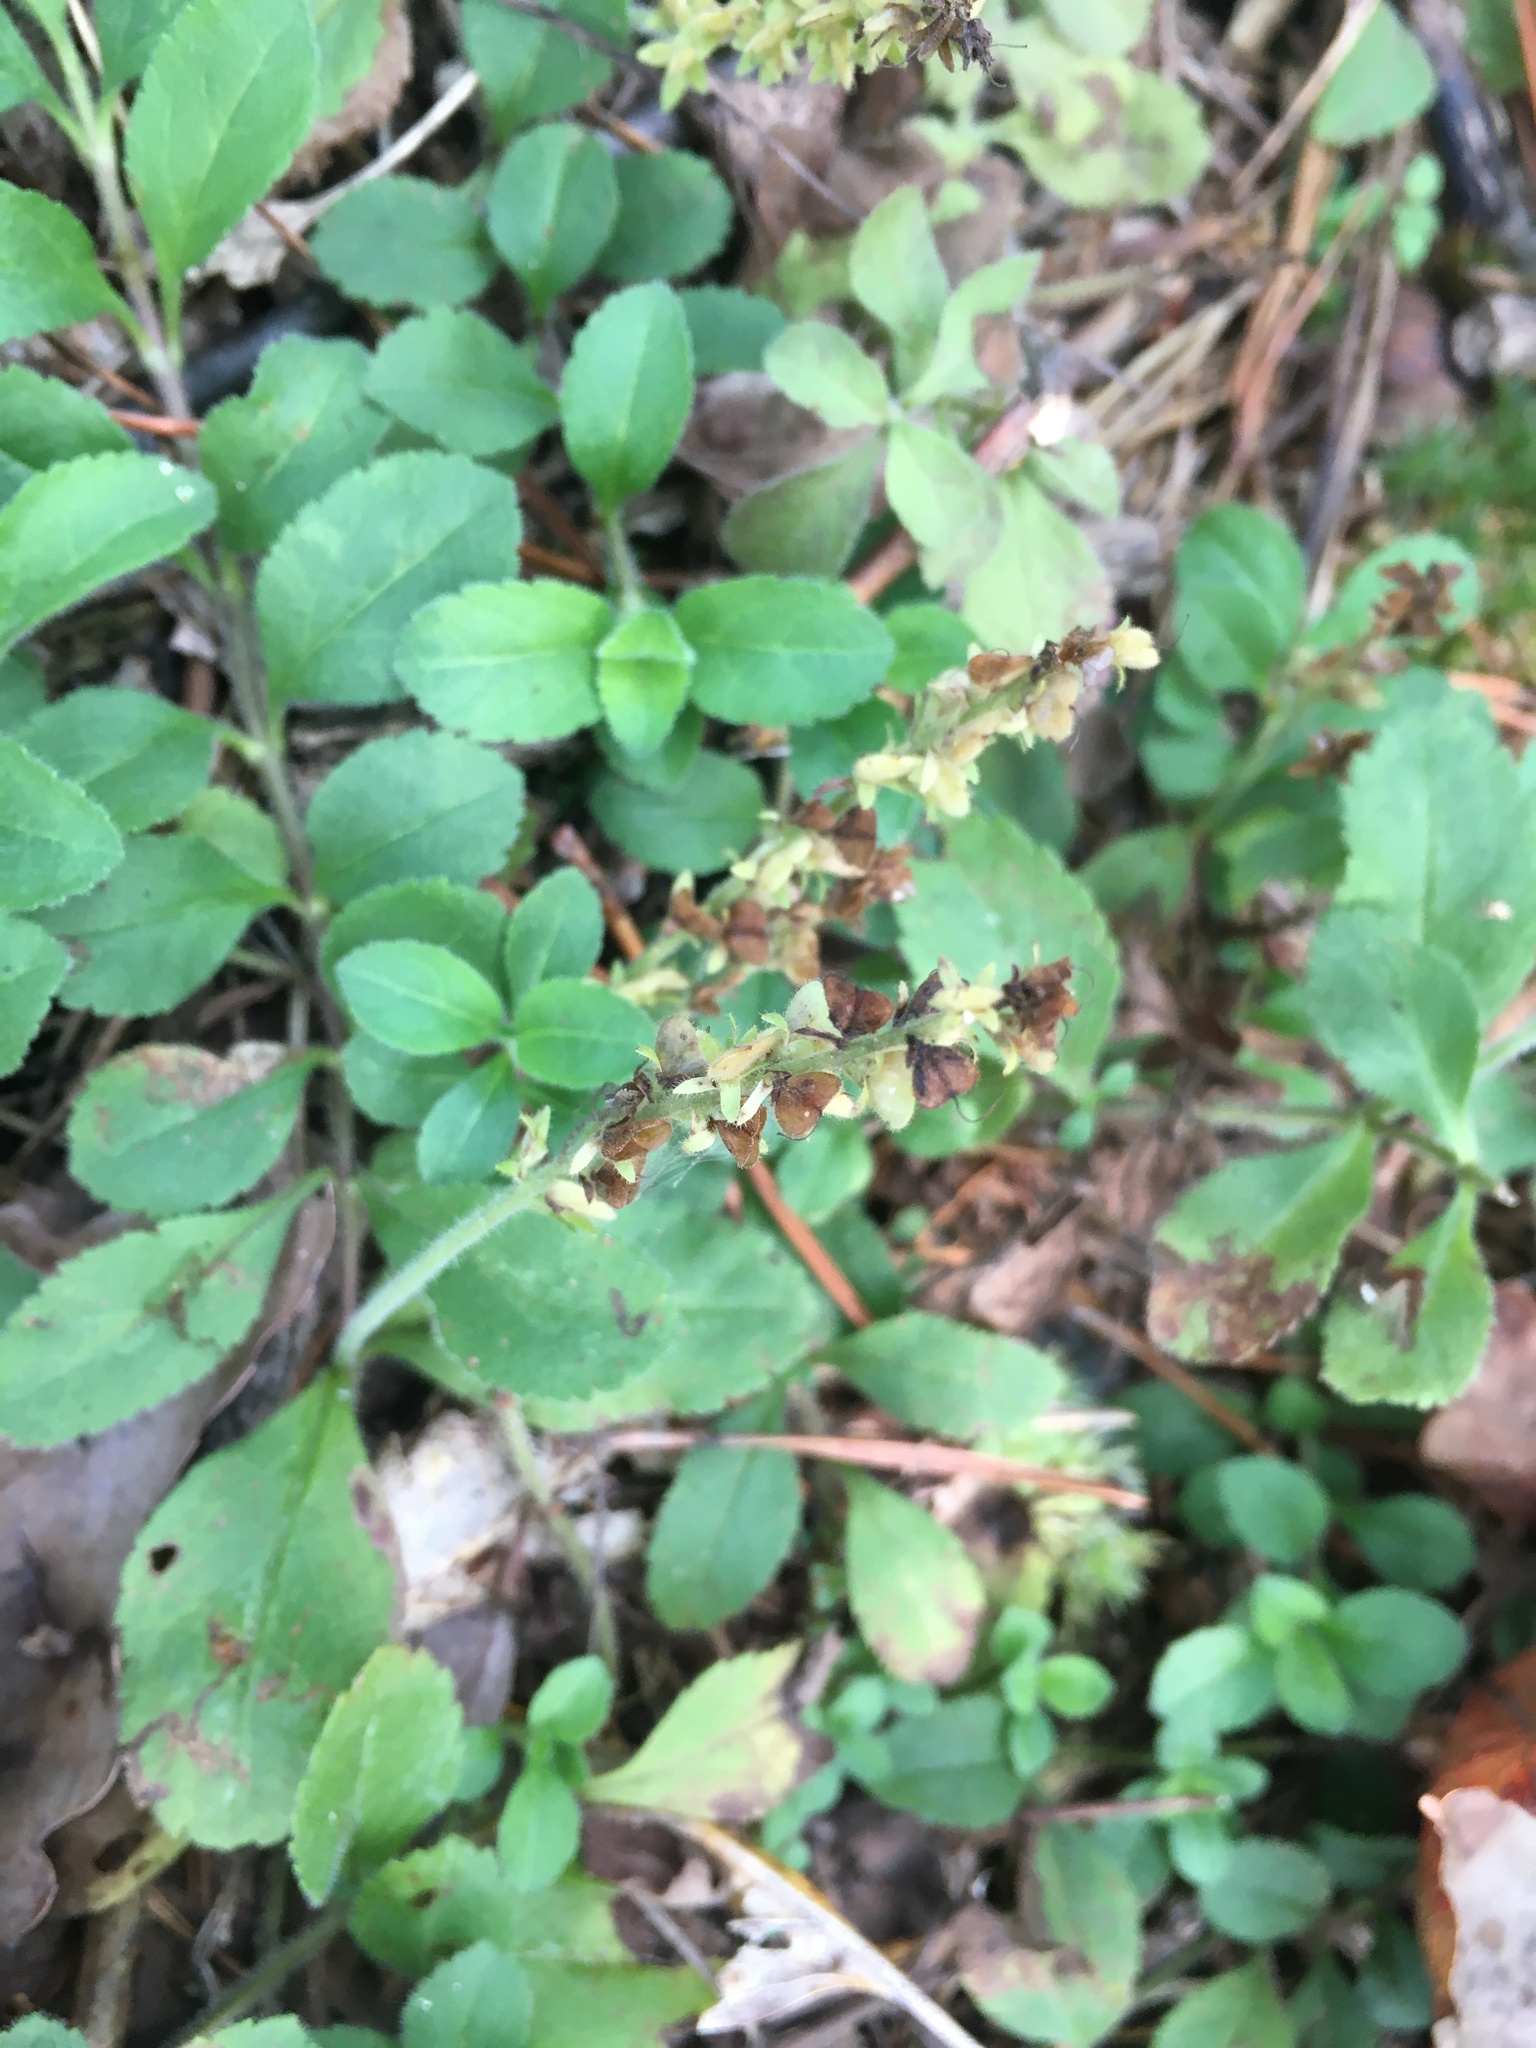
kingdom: Plantae
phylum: Tracheophyta
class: Magnoliopsida
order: Lamiales
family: Plantaginaceae
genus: Veronica
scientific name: Veronica officinalis
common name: Common speedwell
